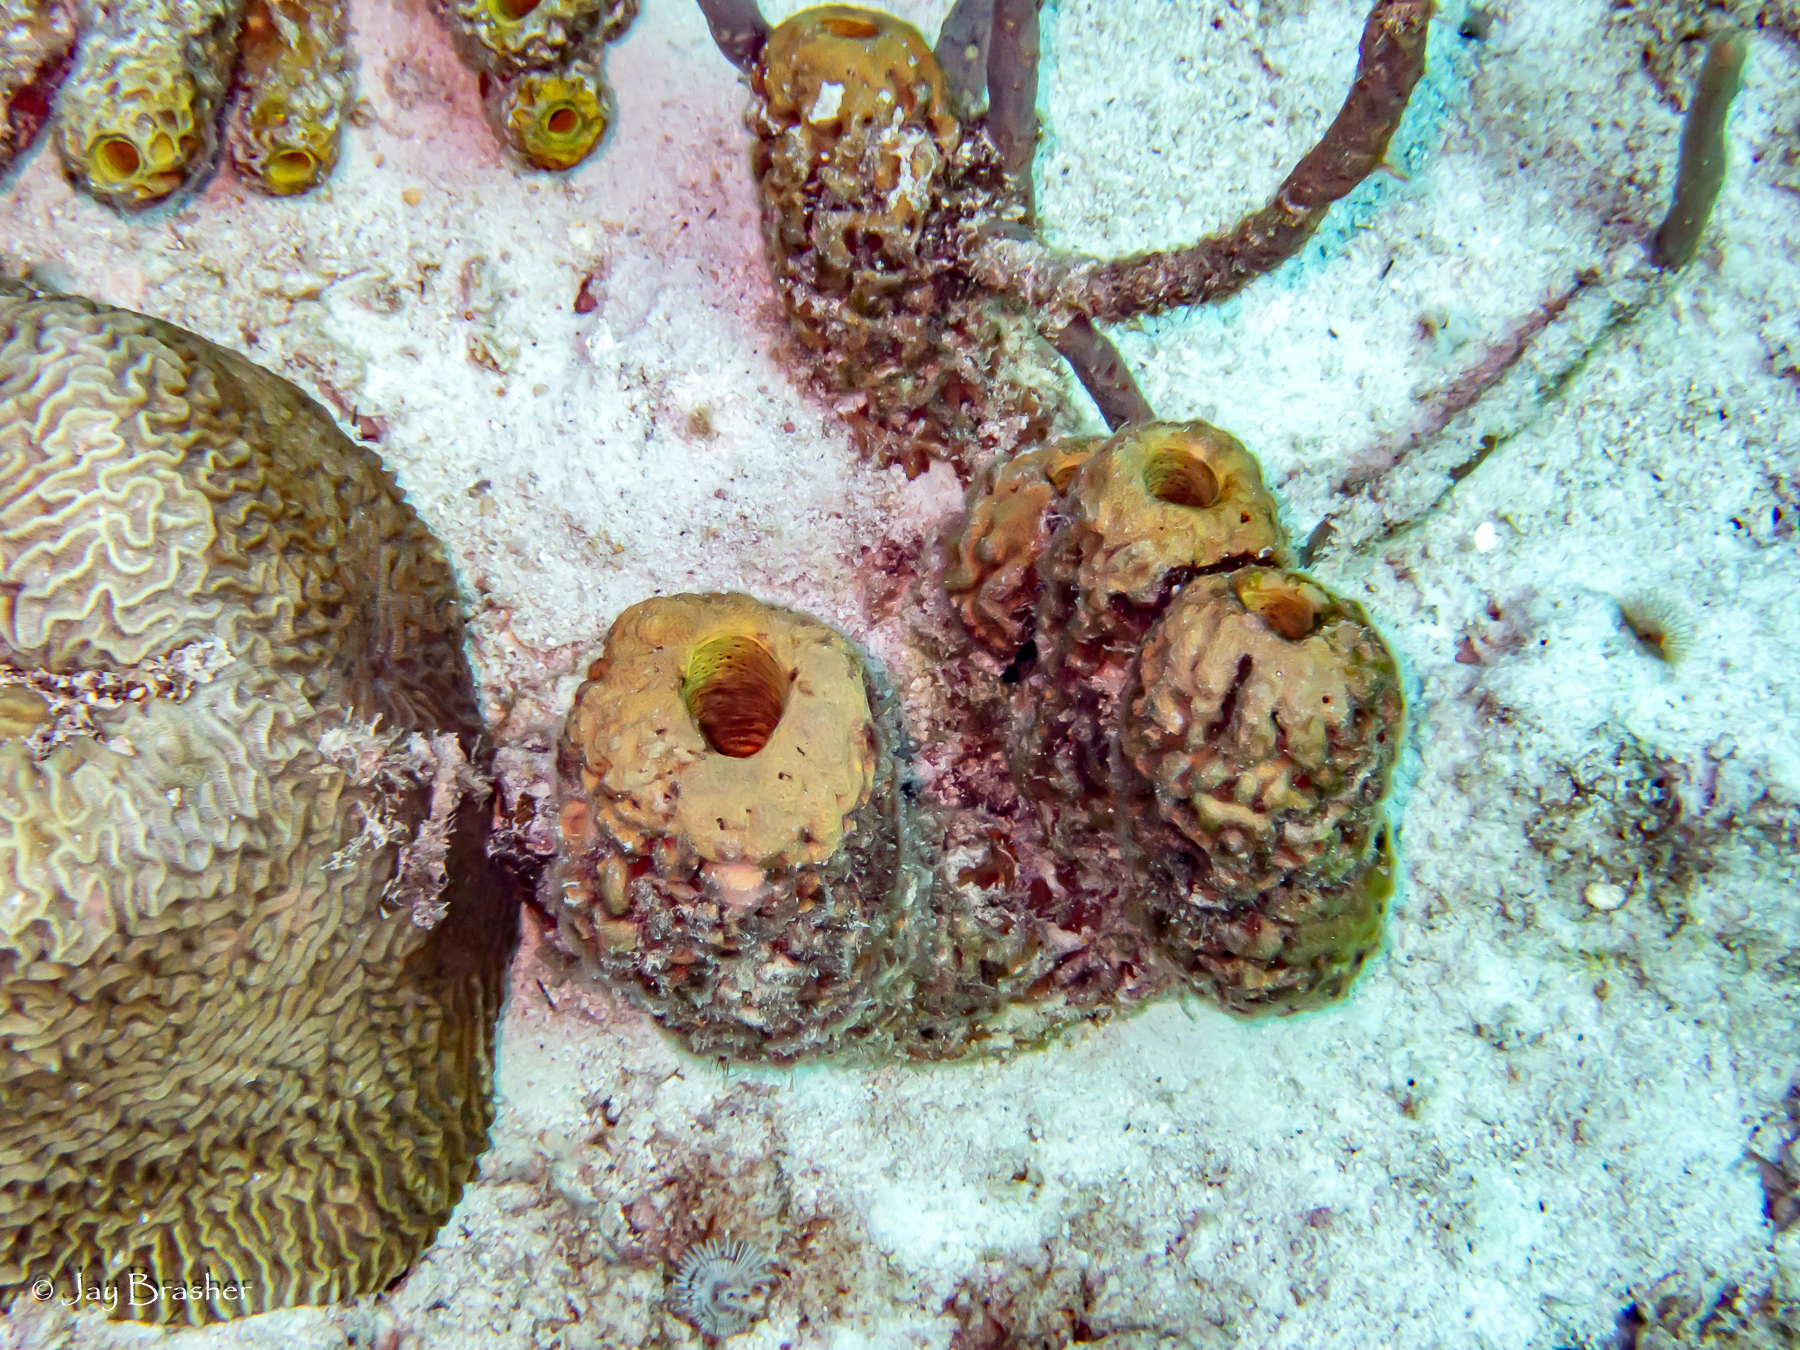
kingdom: Animalia
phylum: Cnidaria
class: Anthozoa
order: Scleractinia
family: Faviidae
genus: Pseudodiploria
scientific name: Pseudodiploria strigosa
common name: Symmetrical brain coral
